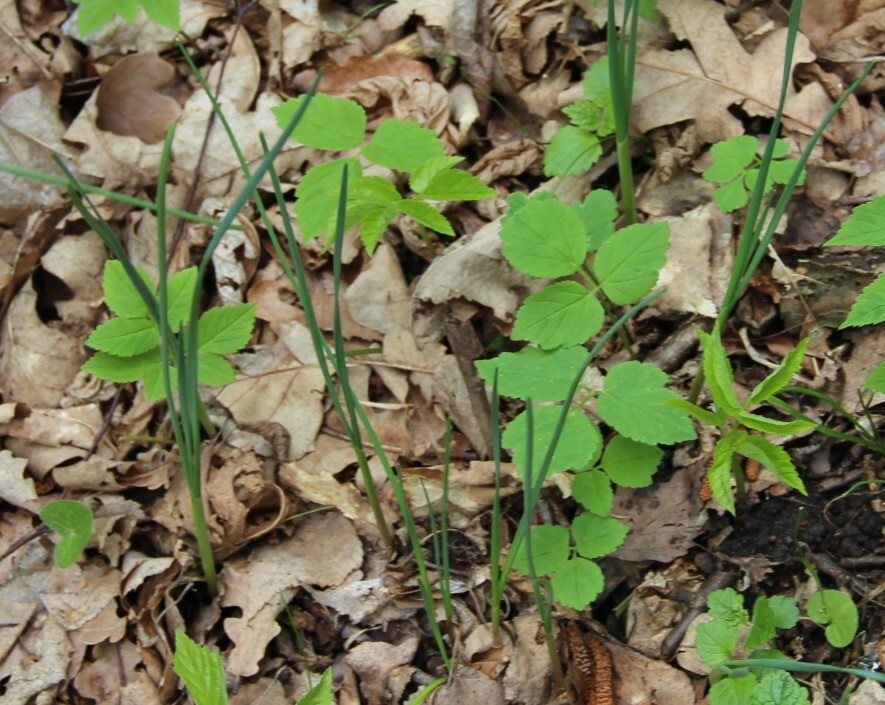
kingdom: Plantae
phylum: Tracheophyta
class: Liliopsida
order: Asparagales
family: Amaryllidaceae
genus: Allium
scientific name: Allium oleraceum
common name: Field garlic
